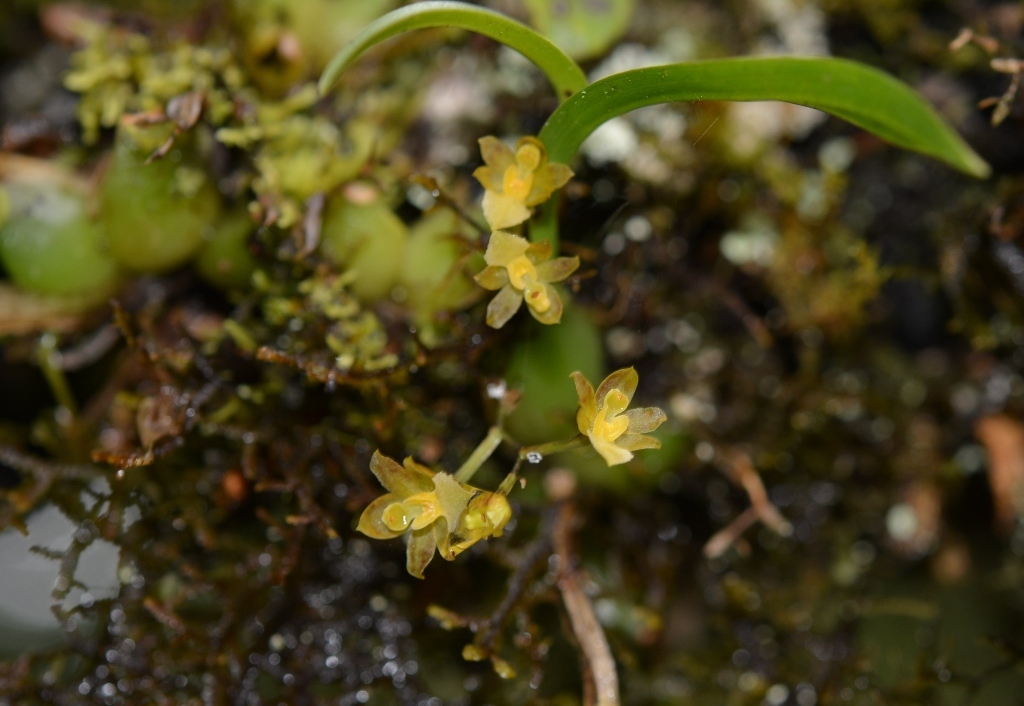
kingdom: Plantae
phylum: Tracheophyta
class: Liliopsida
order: Asparagales
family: Orchidaceae
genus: Rhynchostele
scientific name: Rhynchostele pygmaea
